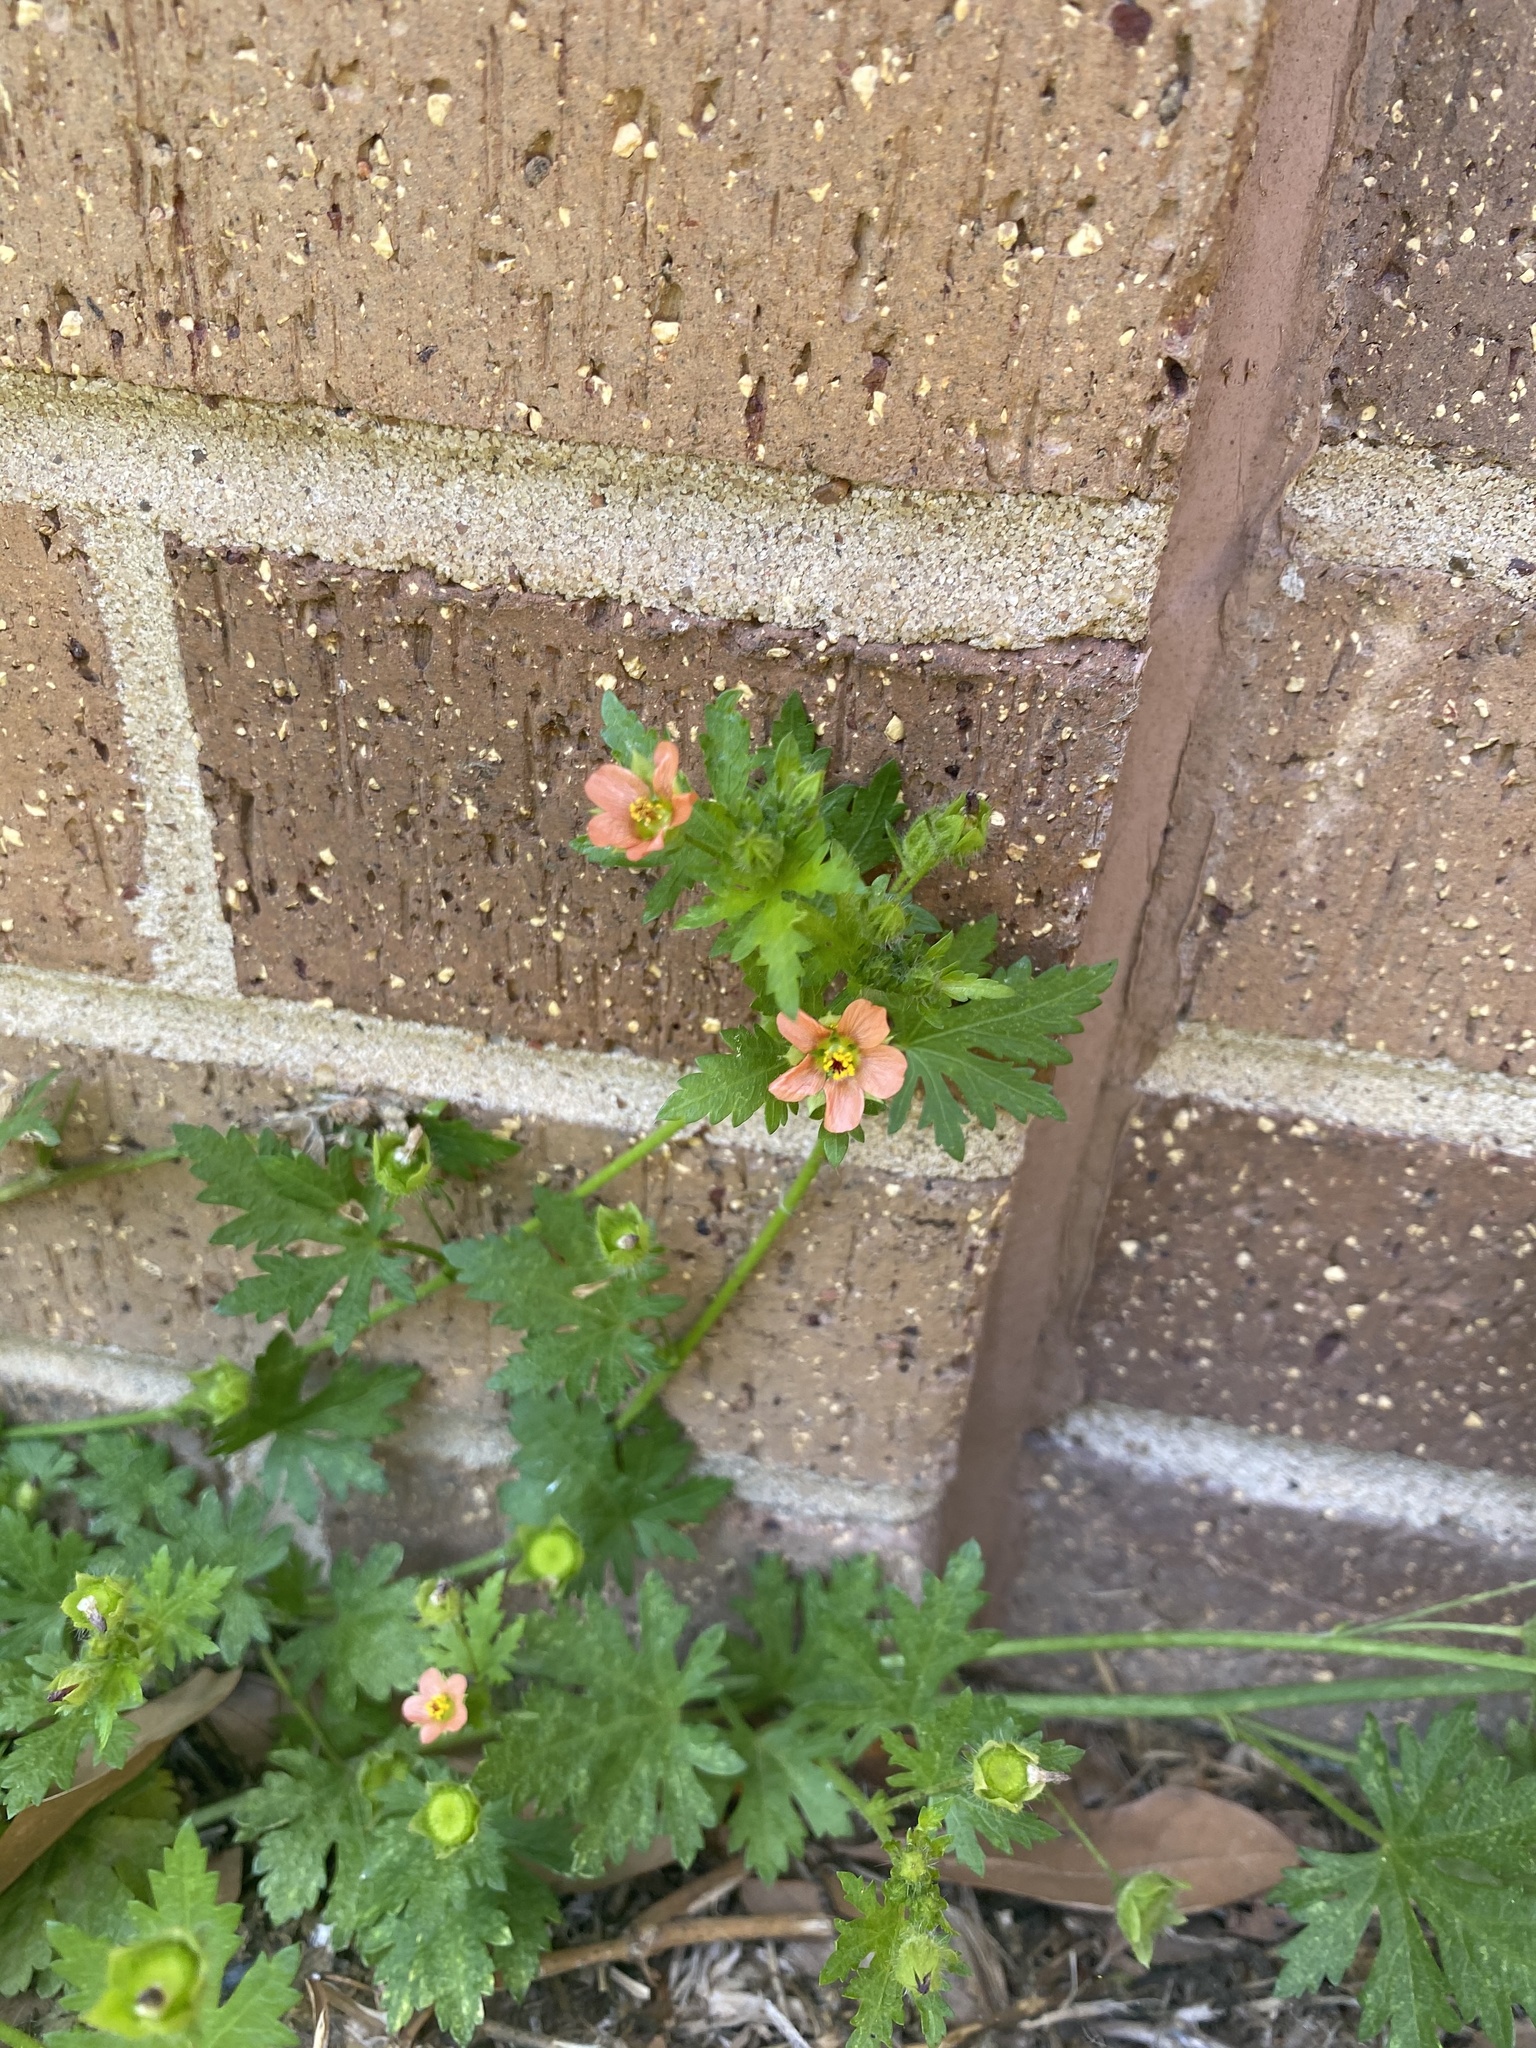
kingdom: Plantae
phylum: Tracheophyta
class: Magnoliopsida
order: Malvales
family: Malvaceae
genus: Modiola
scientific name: Modiola caroliniana
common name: Carolina bristlemallow
